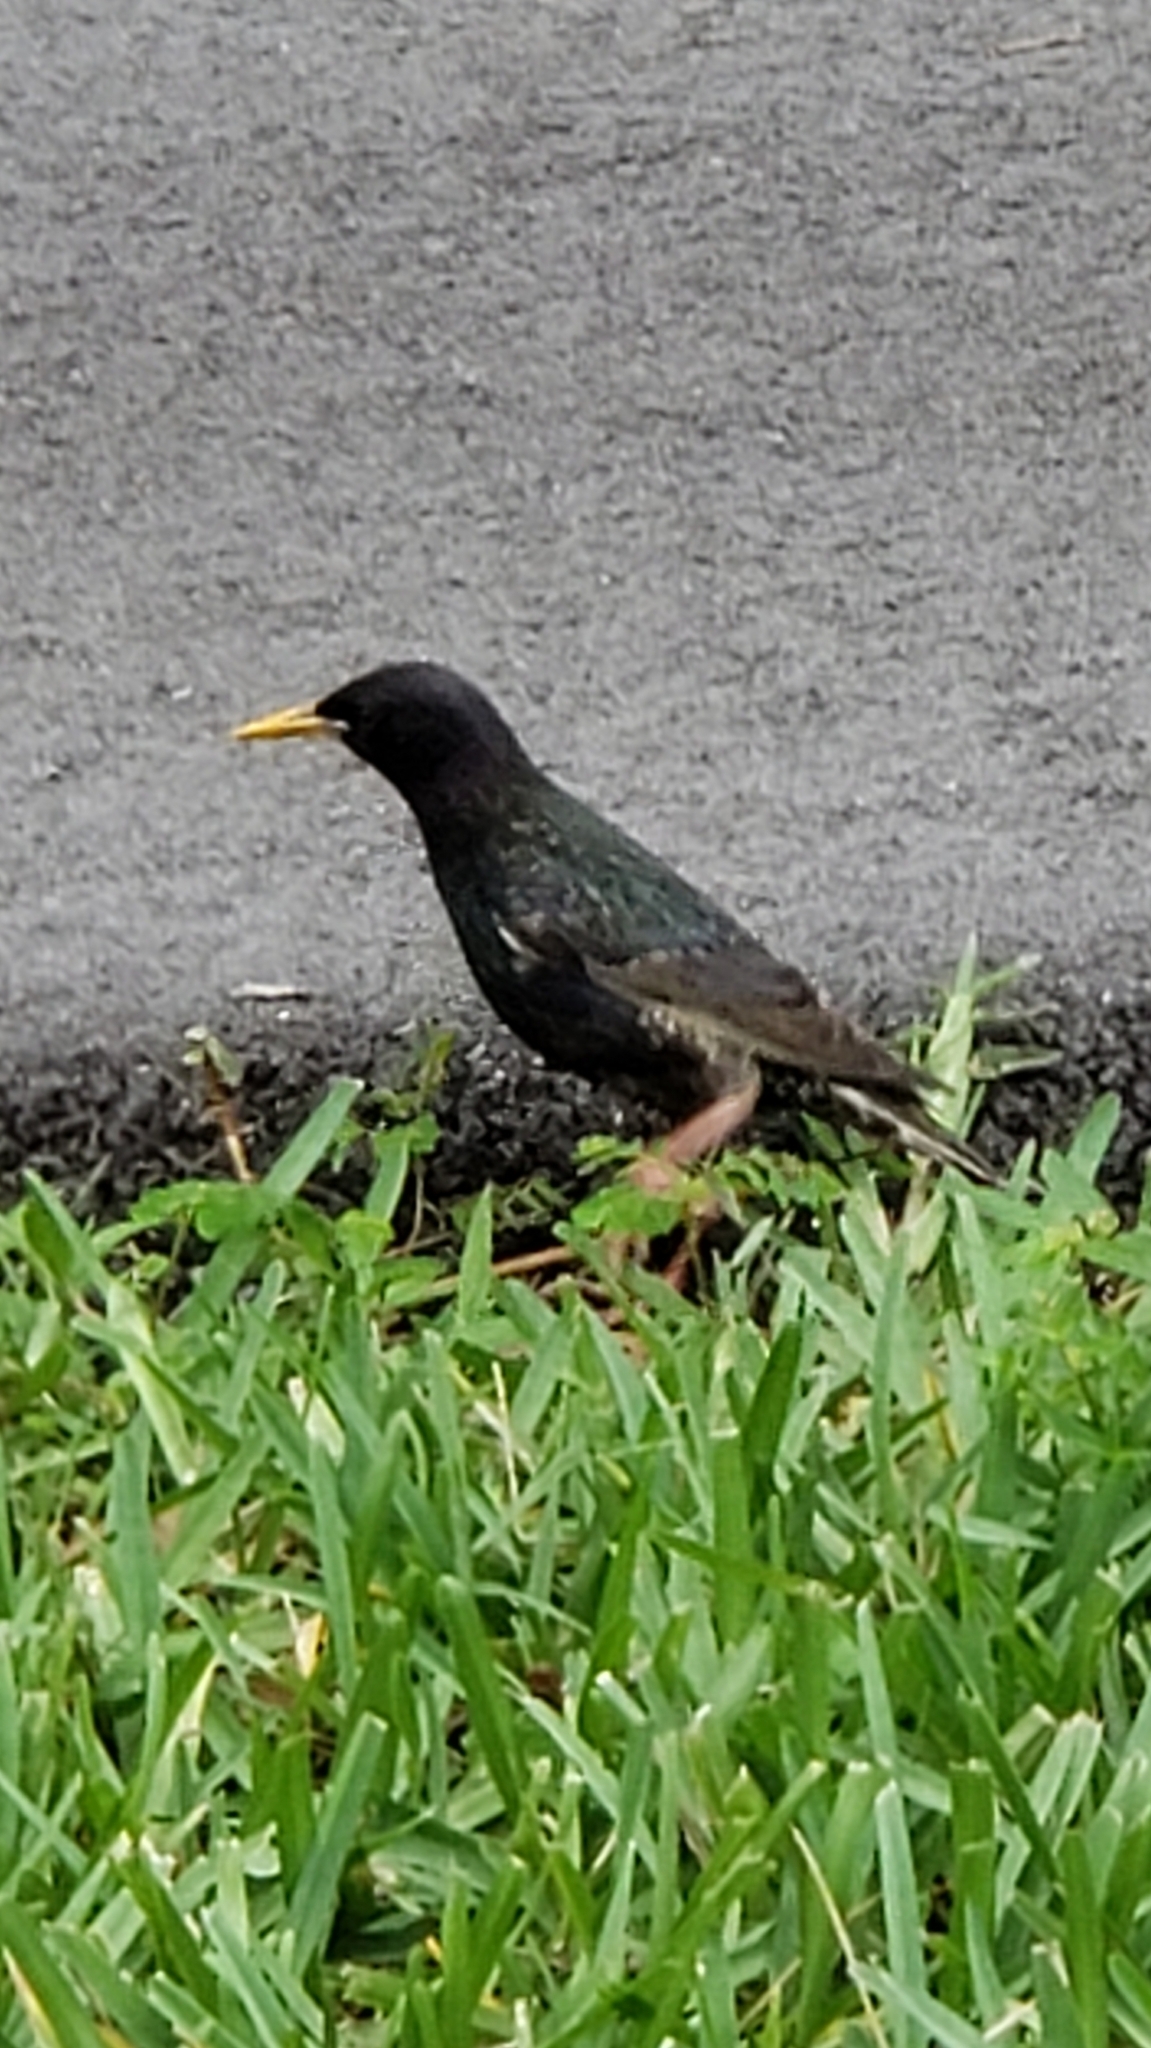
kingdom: Animalia
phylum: Chordata
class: Aves
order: Passeriformes
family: Sturnidae
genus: Sturnus
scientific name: Sturnus vulgaris
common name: Common starling
